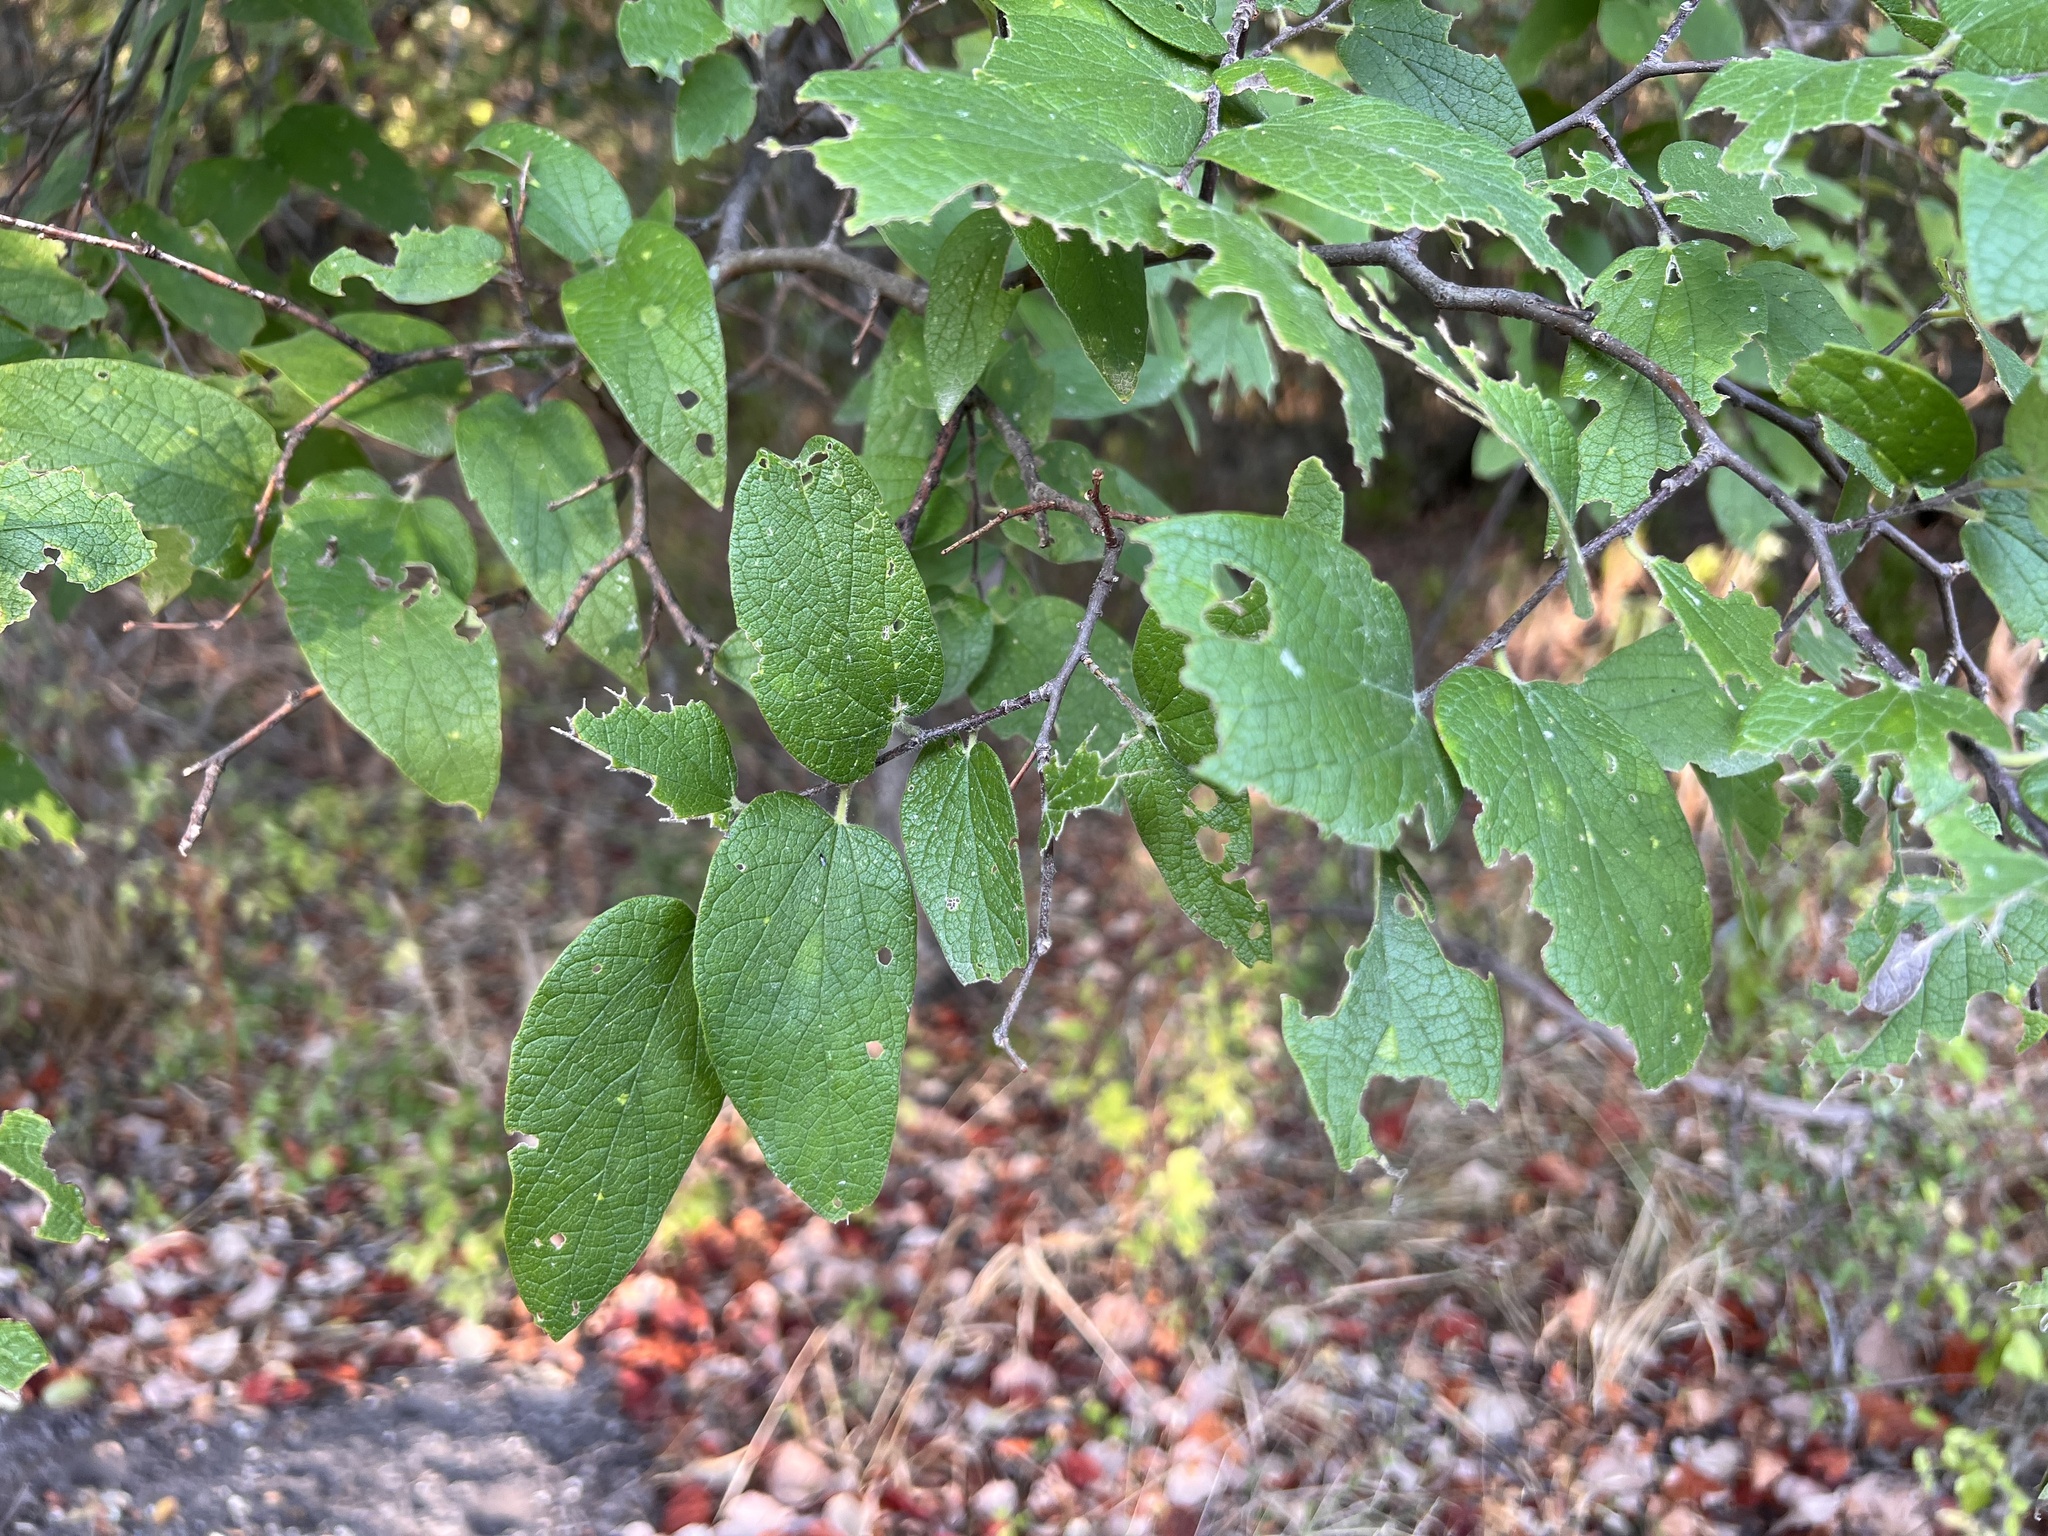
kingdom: Plantae
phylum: Tracheophyta
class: Magnoliopsida
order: Rosales
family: Cannabaceae
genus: Celtis
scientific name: Celtis reticulata
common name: Netleaf hackberry
